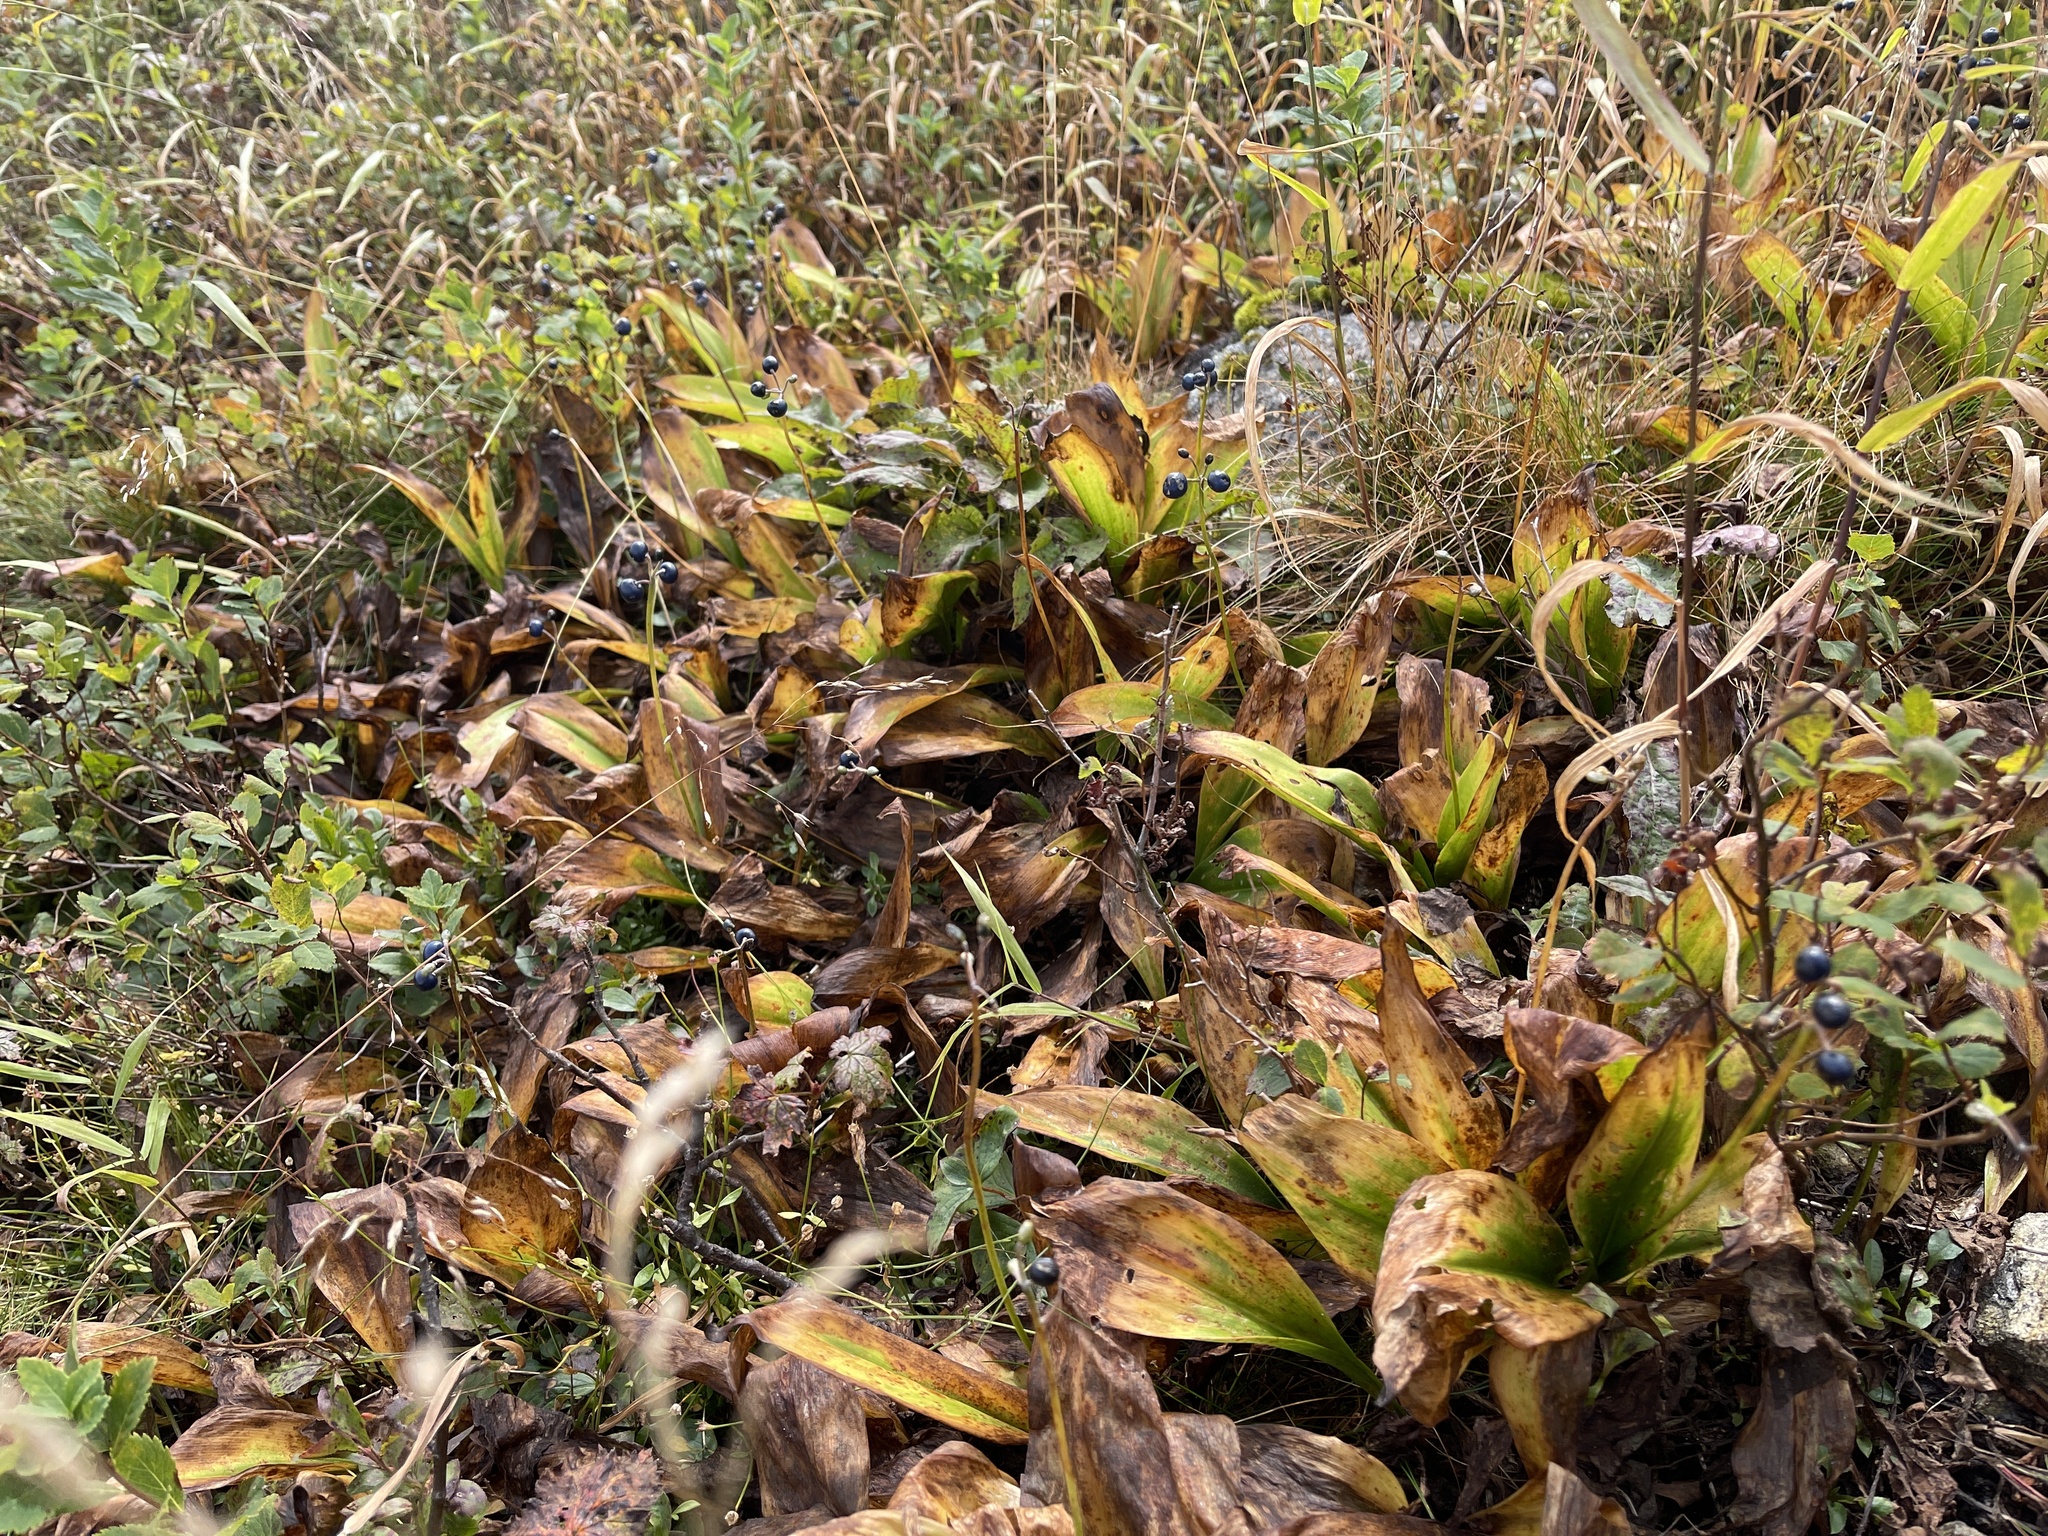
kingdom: Plantae
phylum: Tracheophyta
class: Liliopsida
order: Liliales
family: Liliaceae
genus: Clintonia
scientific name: Clintonia borealis
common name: Yellow clintonia
